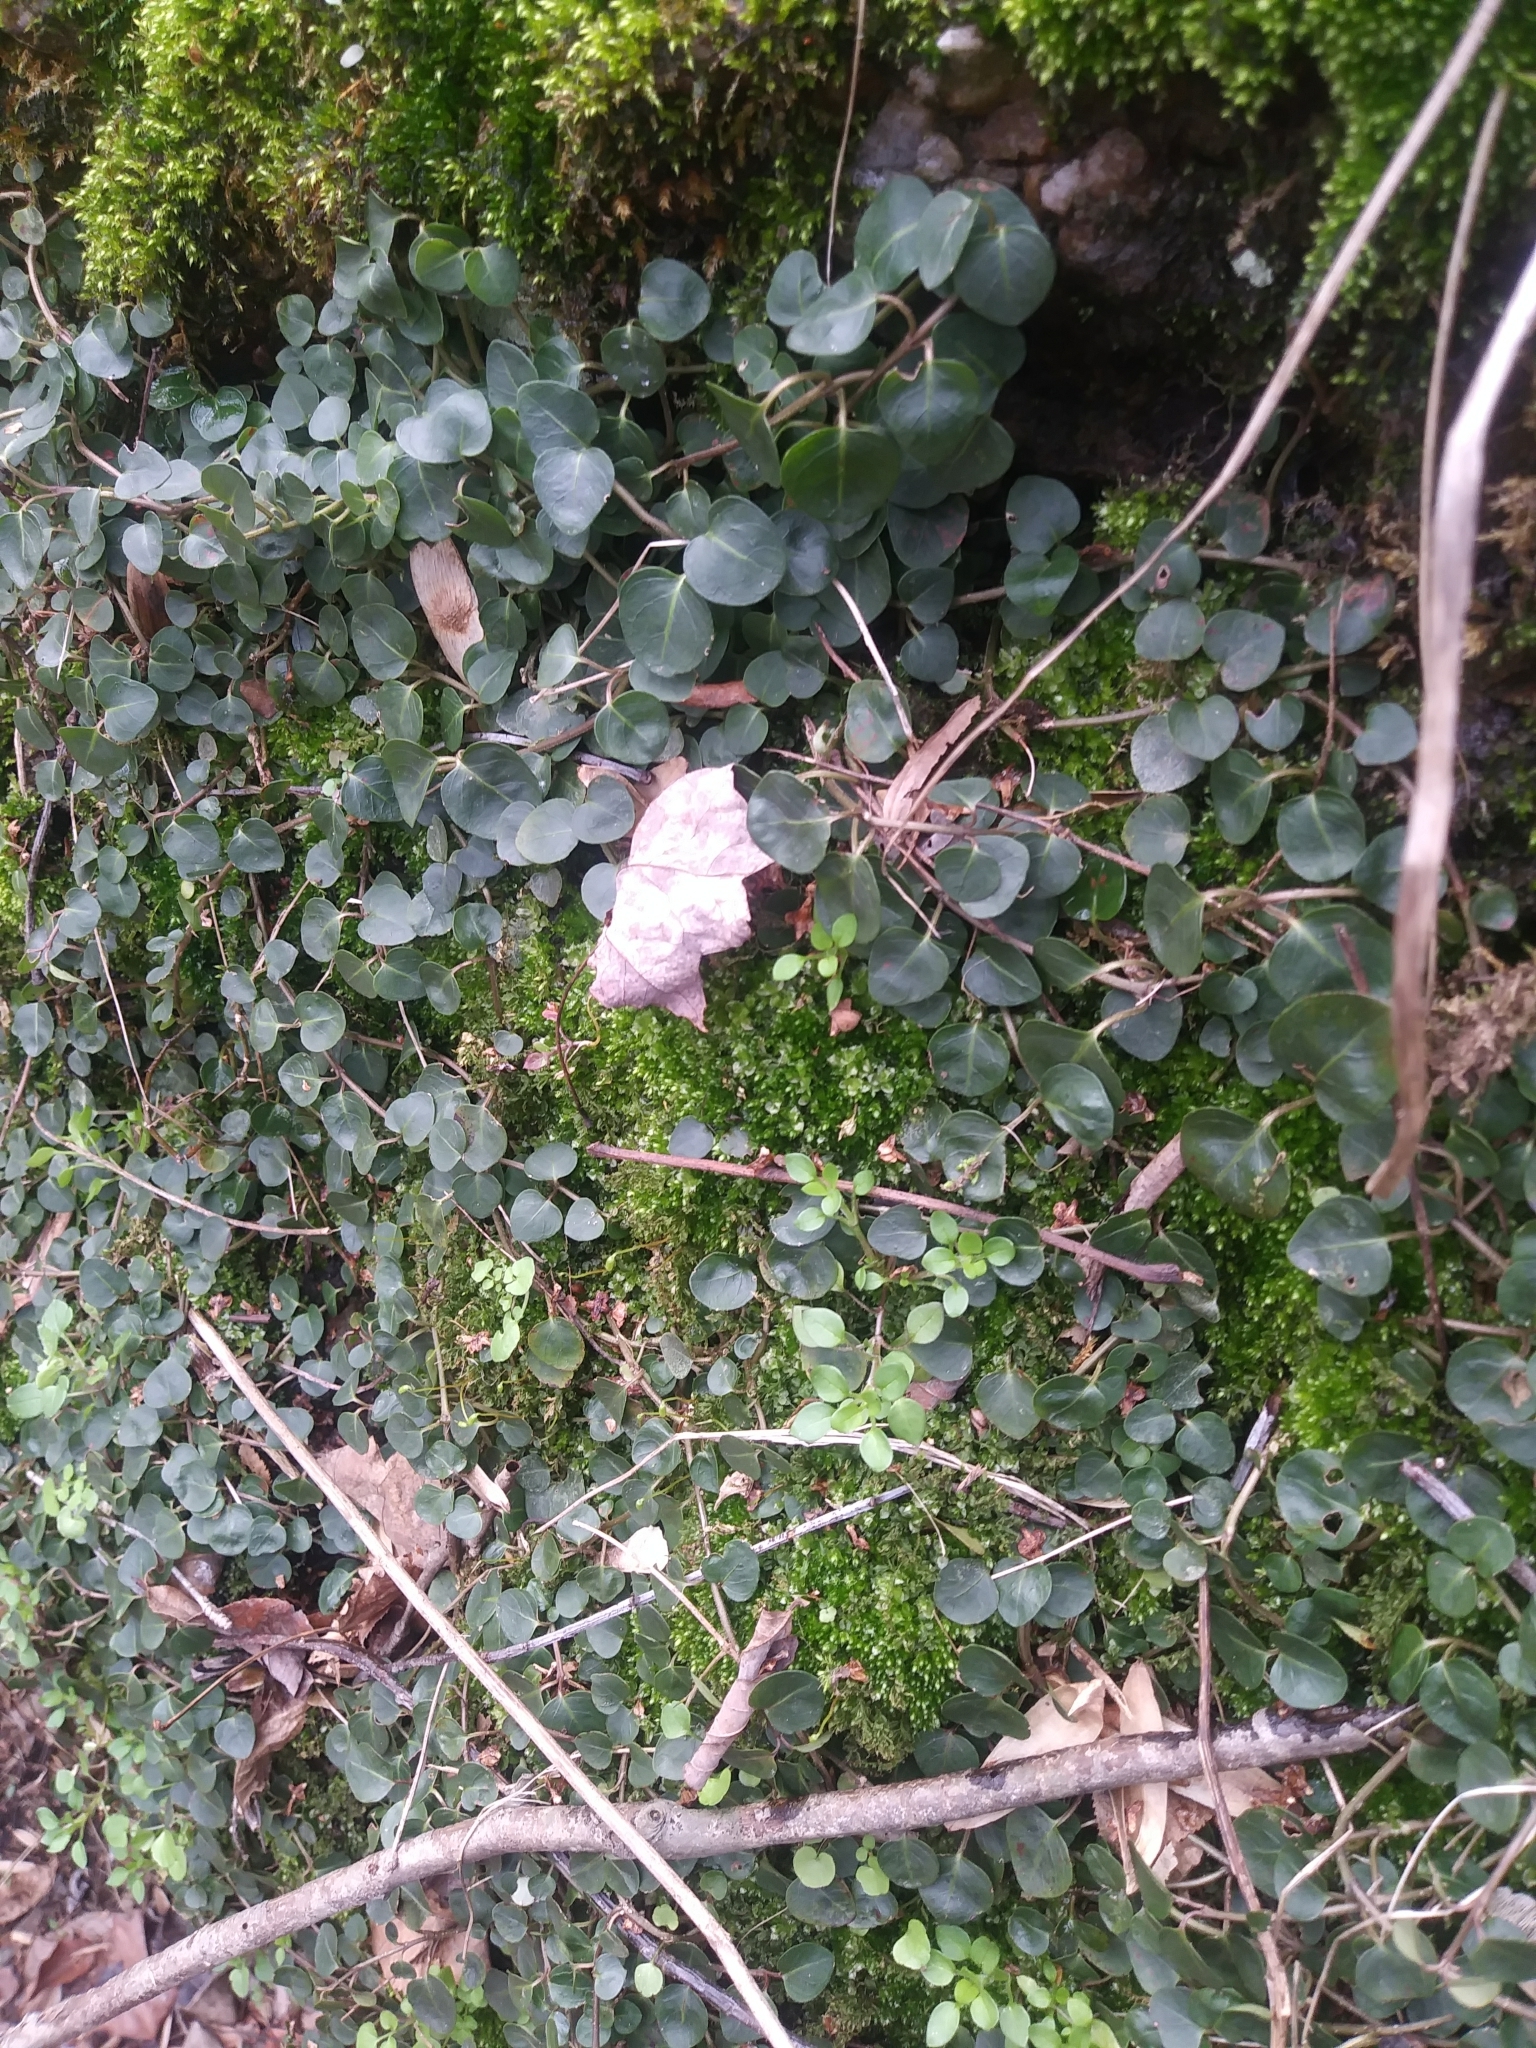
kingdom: Plantae
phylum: Tracheophyta
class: Magnoliopsida
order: Gentianales
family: Rubiaceae
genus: Mitchella
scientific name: Mitchella repens
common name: Partridge-berry
